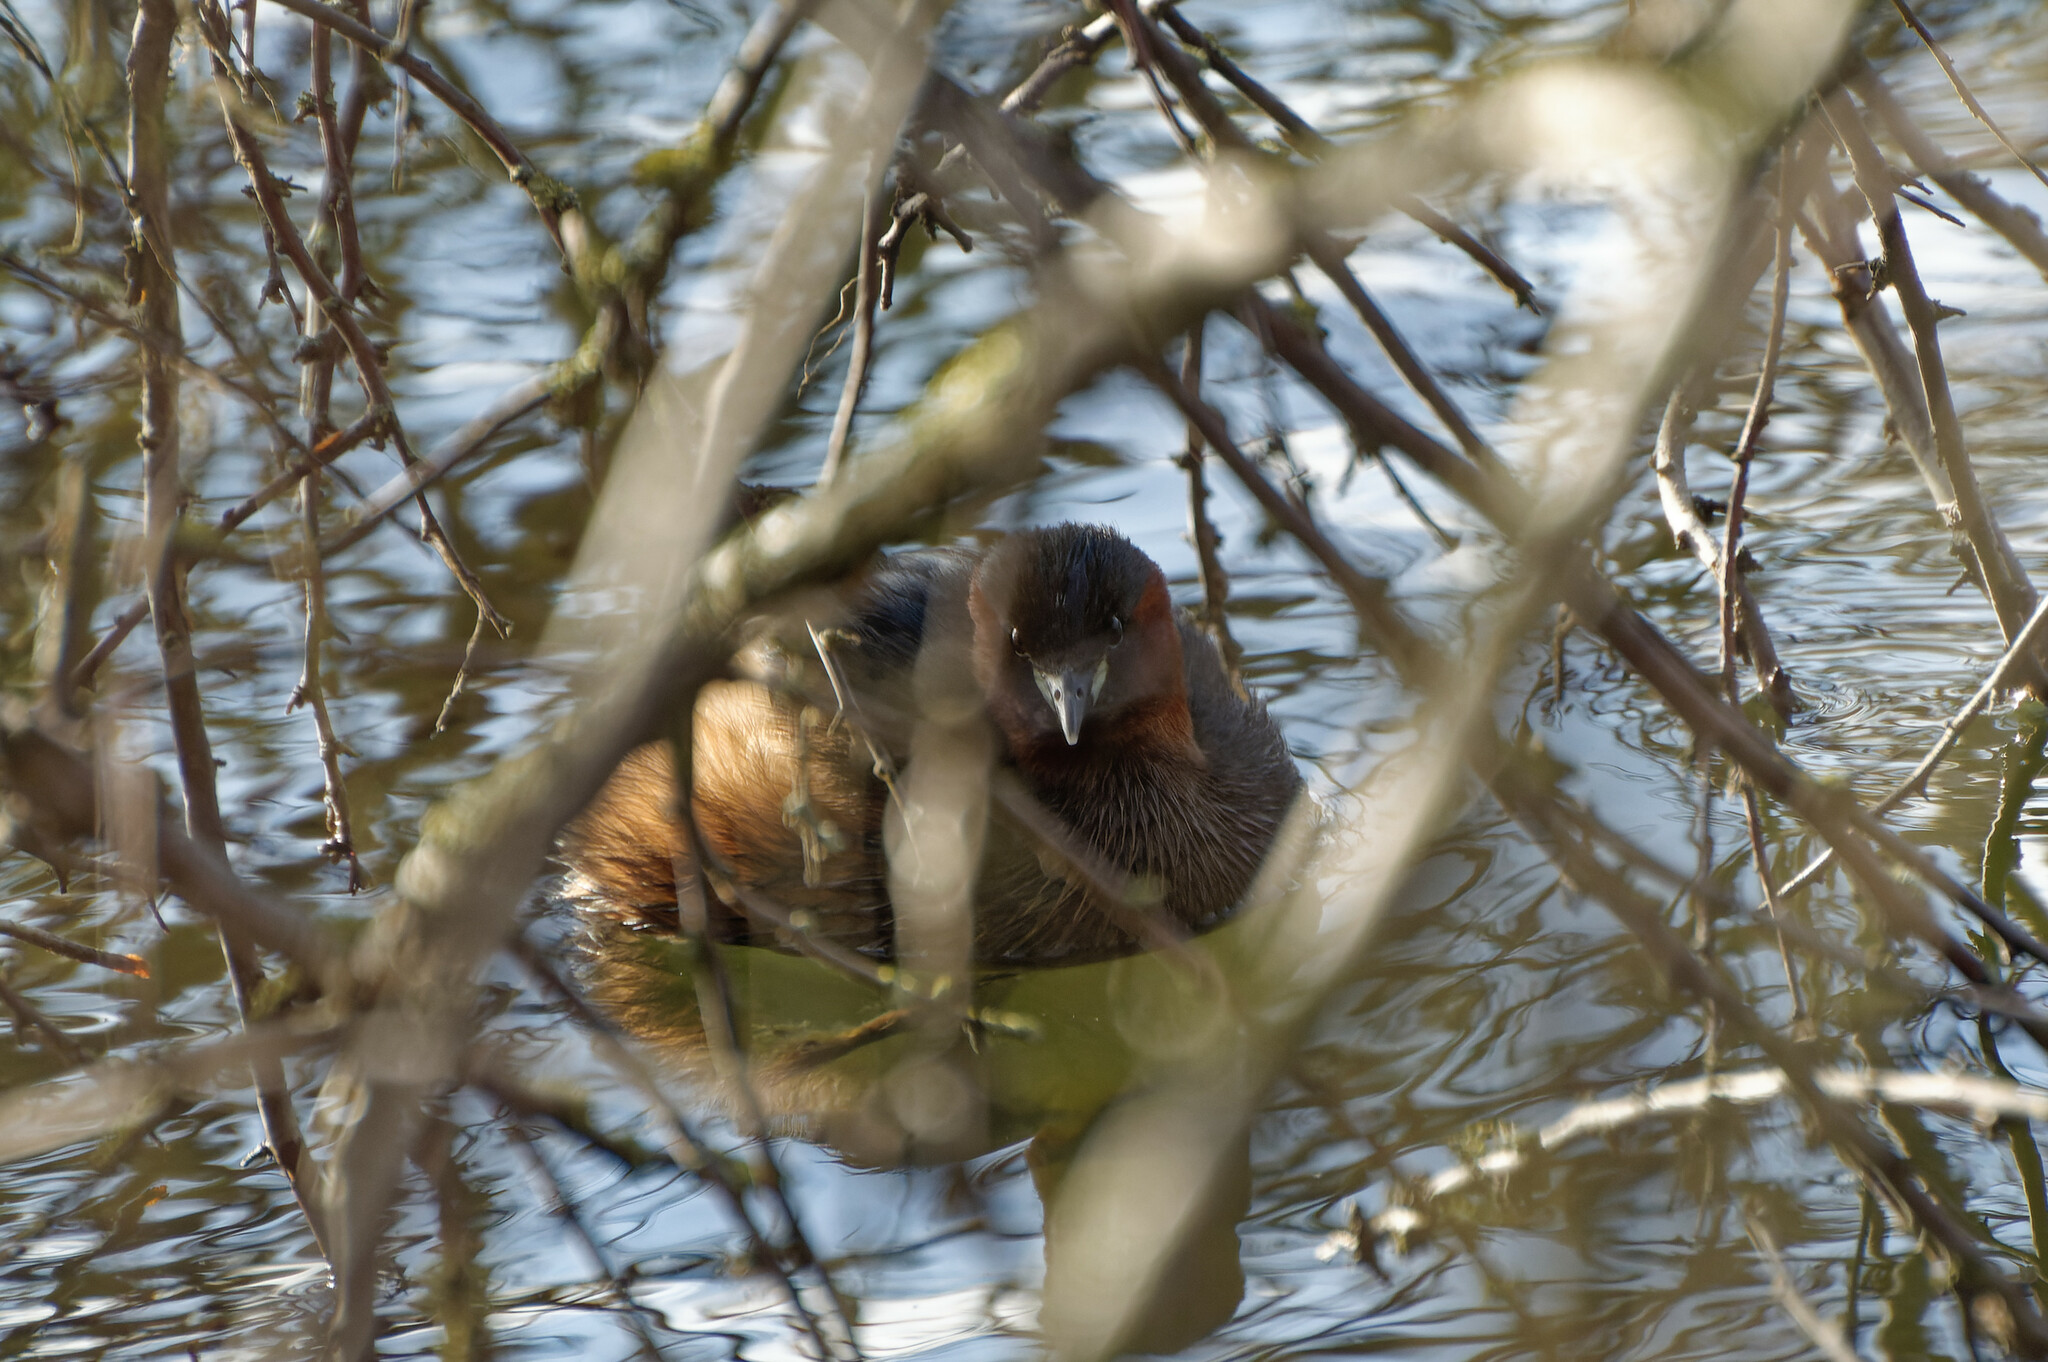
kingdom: Animalia
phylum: Chordata
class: Aves
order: Podicipediformes
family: Podicipedidae
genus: Tachybaptus
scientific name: Tachybaptus ruficollis
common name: Little grebe
